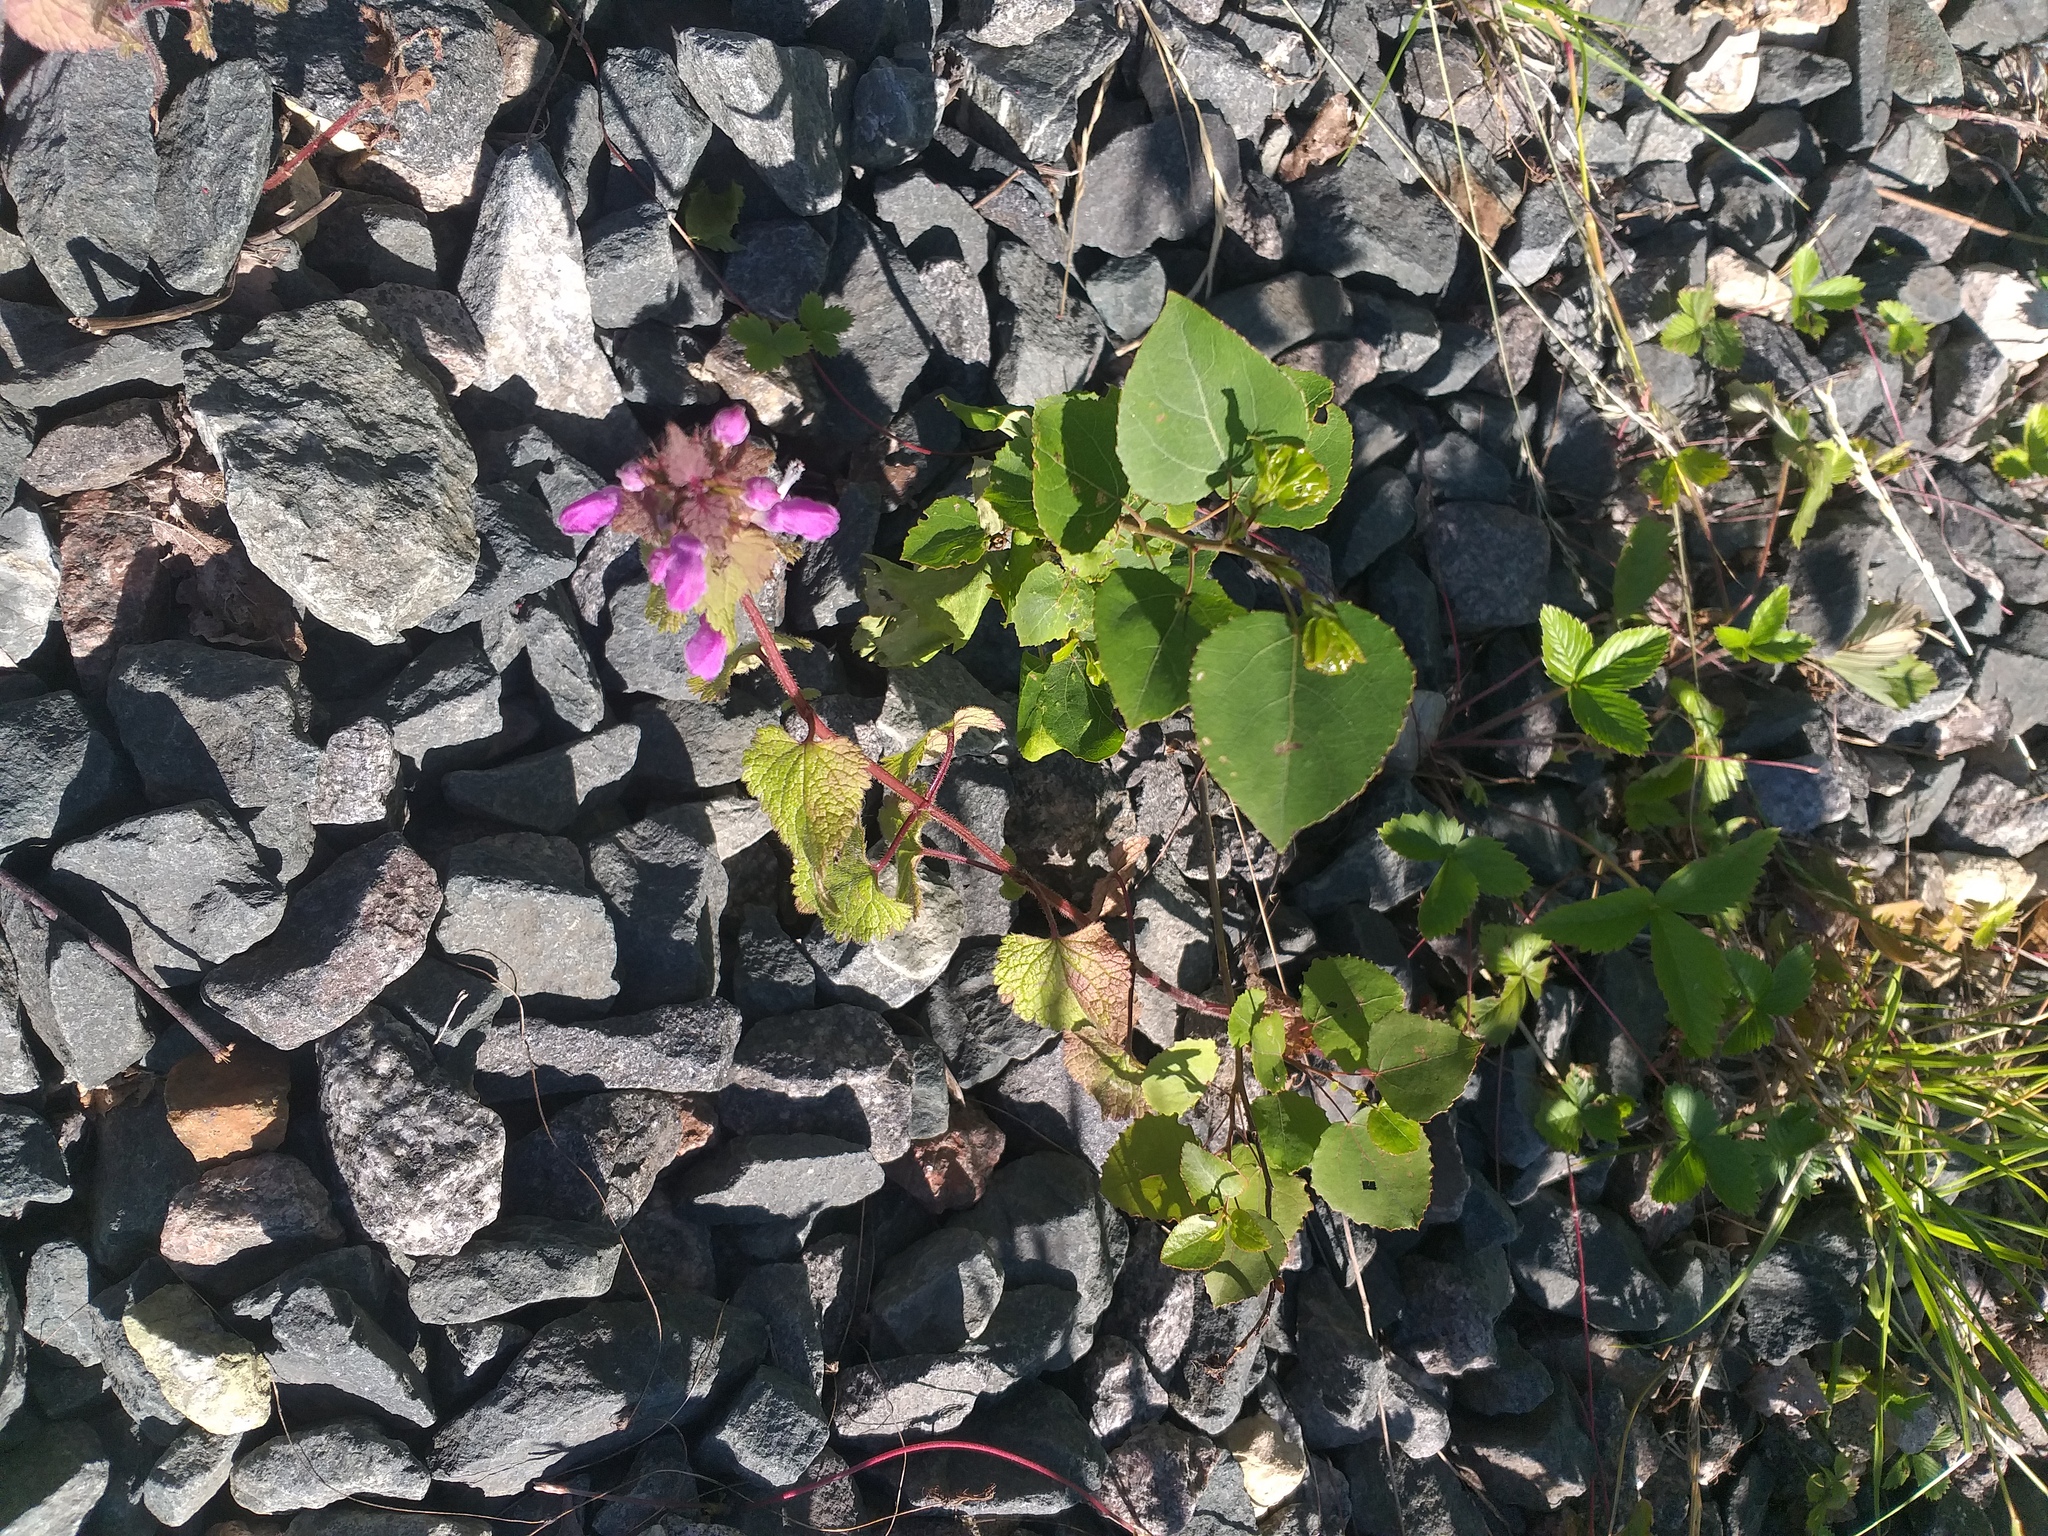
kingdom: Plantae
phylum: Tracheophyta
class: Magnoliopsida
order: Lamiales
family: Lamiaceae
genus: Lamium
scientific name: Lamium maculatum
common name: Spotted dead-nettle
